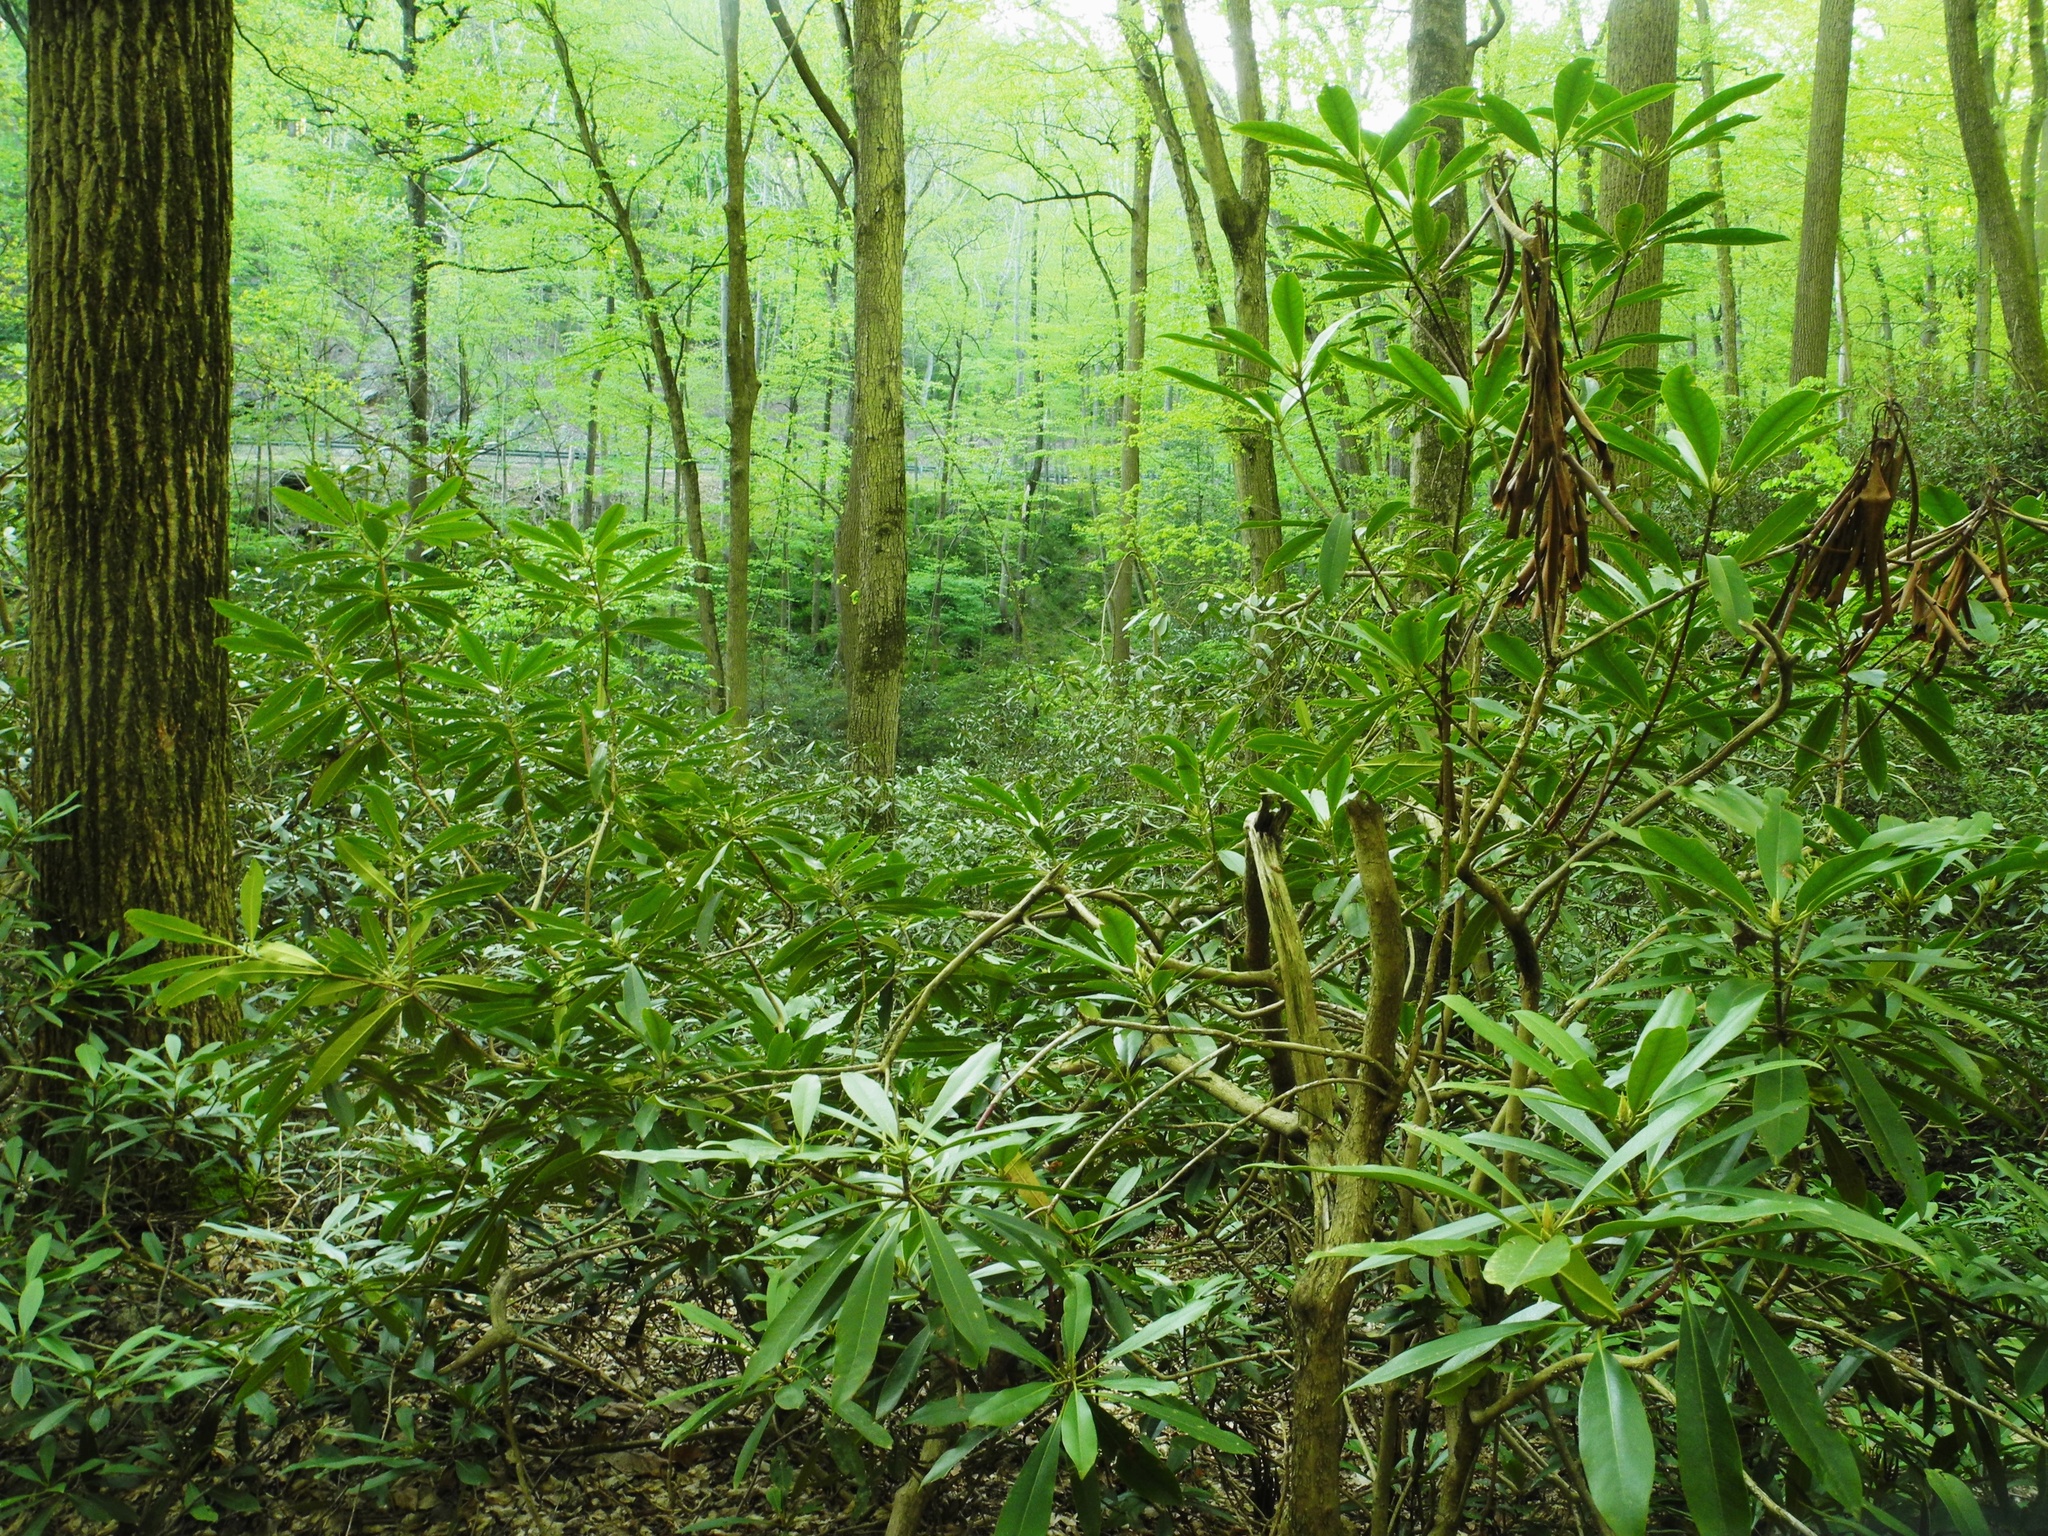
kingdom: Plantae
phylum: Tracheophyta
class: Magnoliopsida
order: Ericales
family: Ericaceae
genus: Rhododendron
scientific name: Rhododendron maximum
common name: Great rhododendron
